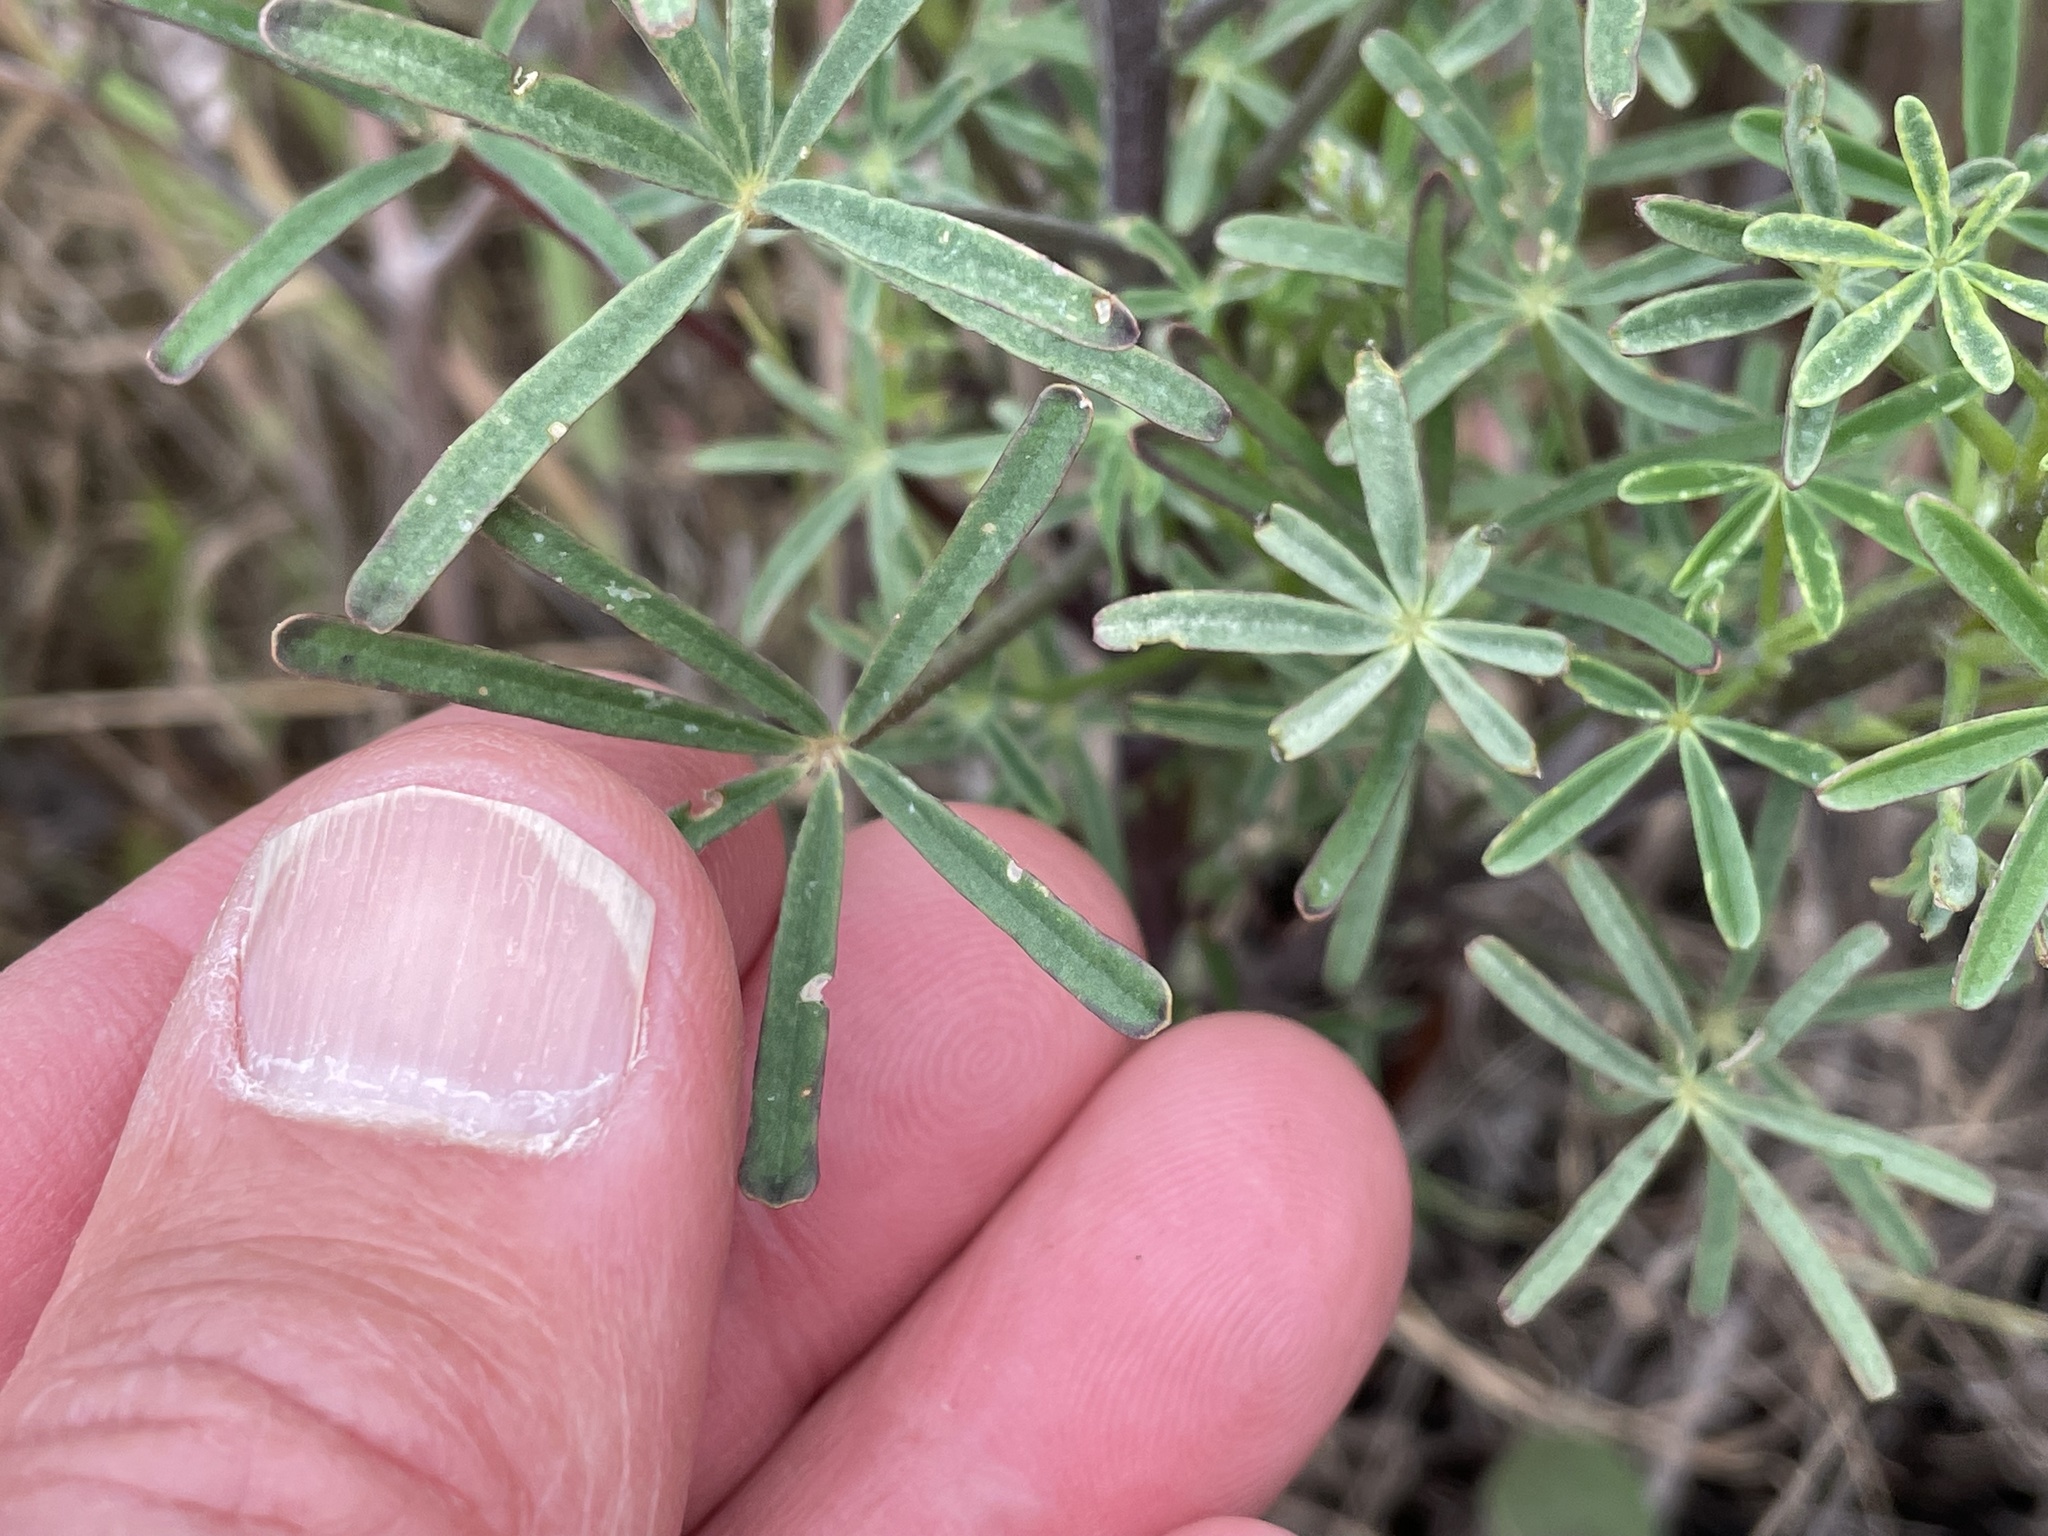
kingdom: Plantae
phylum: Tracheophyta
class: Magnoliopsida
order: Fabales
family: Fabaceae
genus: Lupinus
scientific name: Lupinus truncatus
